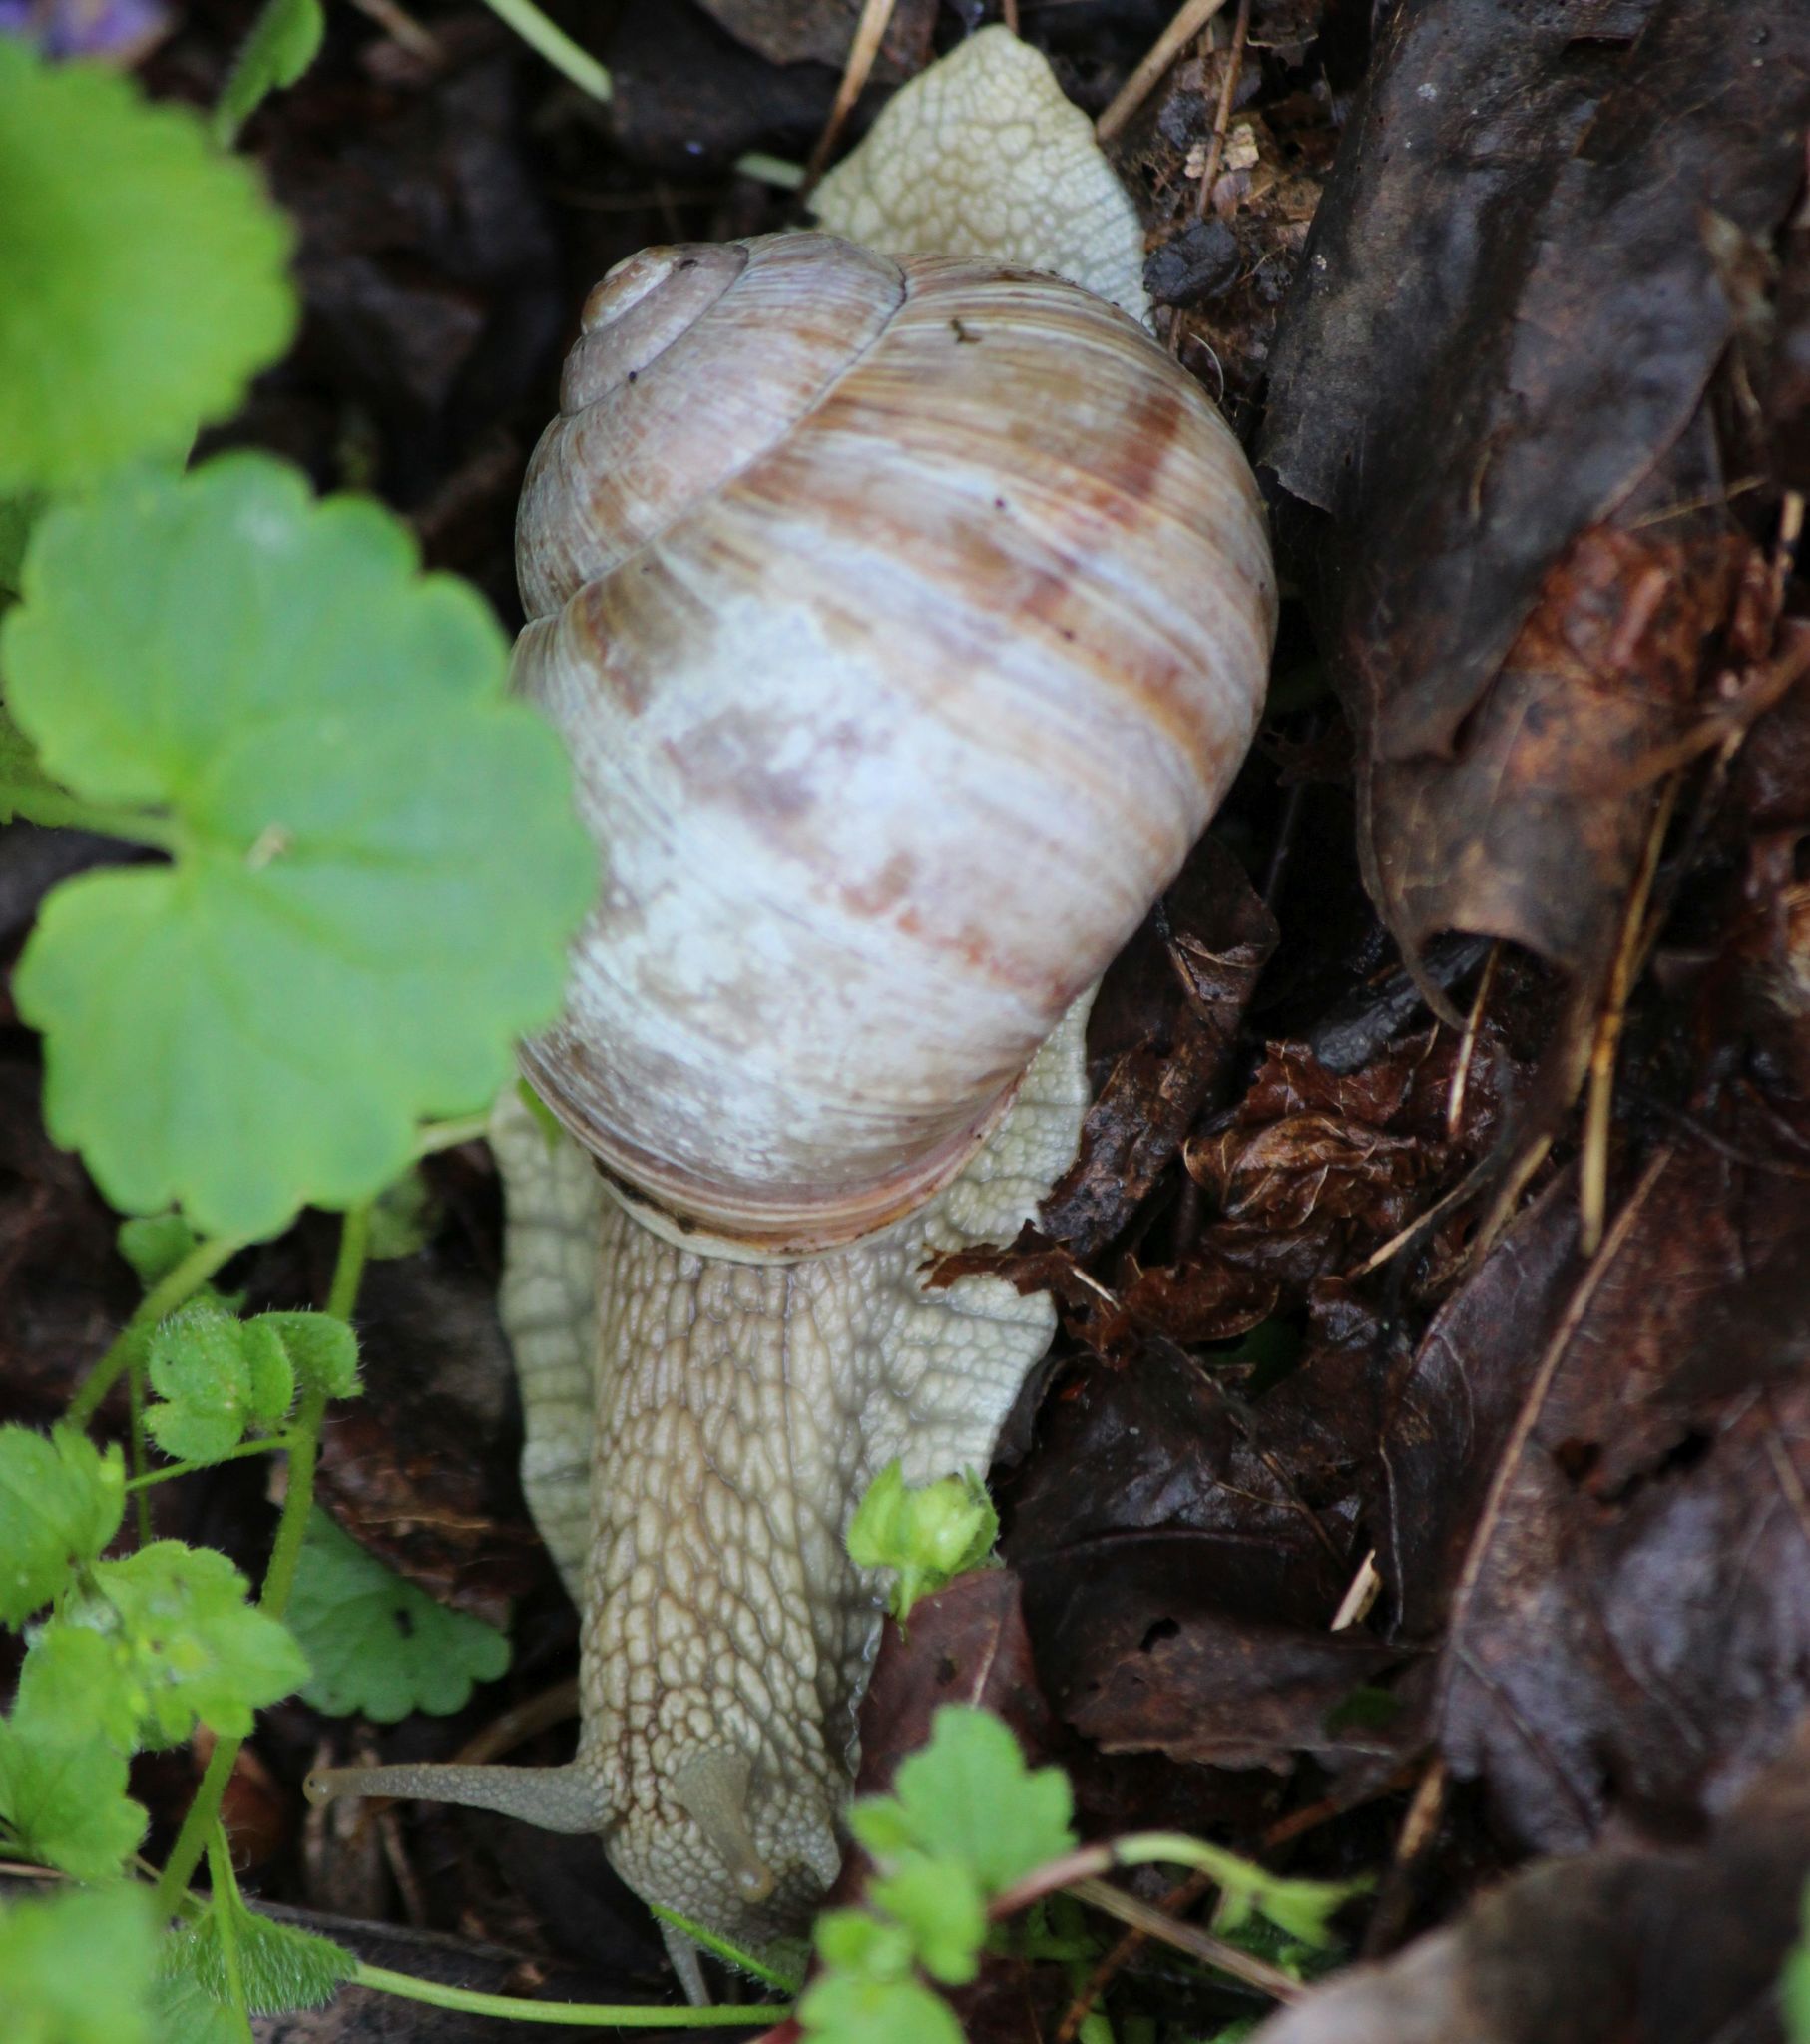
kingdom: Animalia
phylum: Mollusca
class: Gastropoda
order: Stylommatophora
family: Helicidae
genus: Helix
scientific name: Helix pomatia
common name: Roman snail
